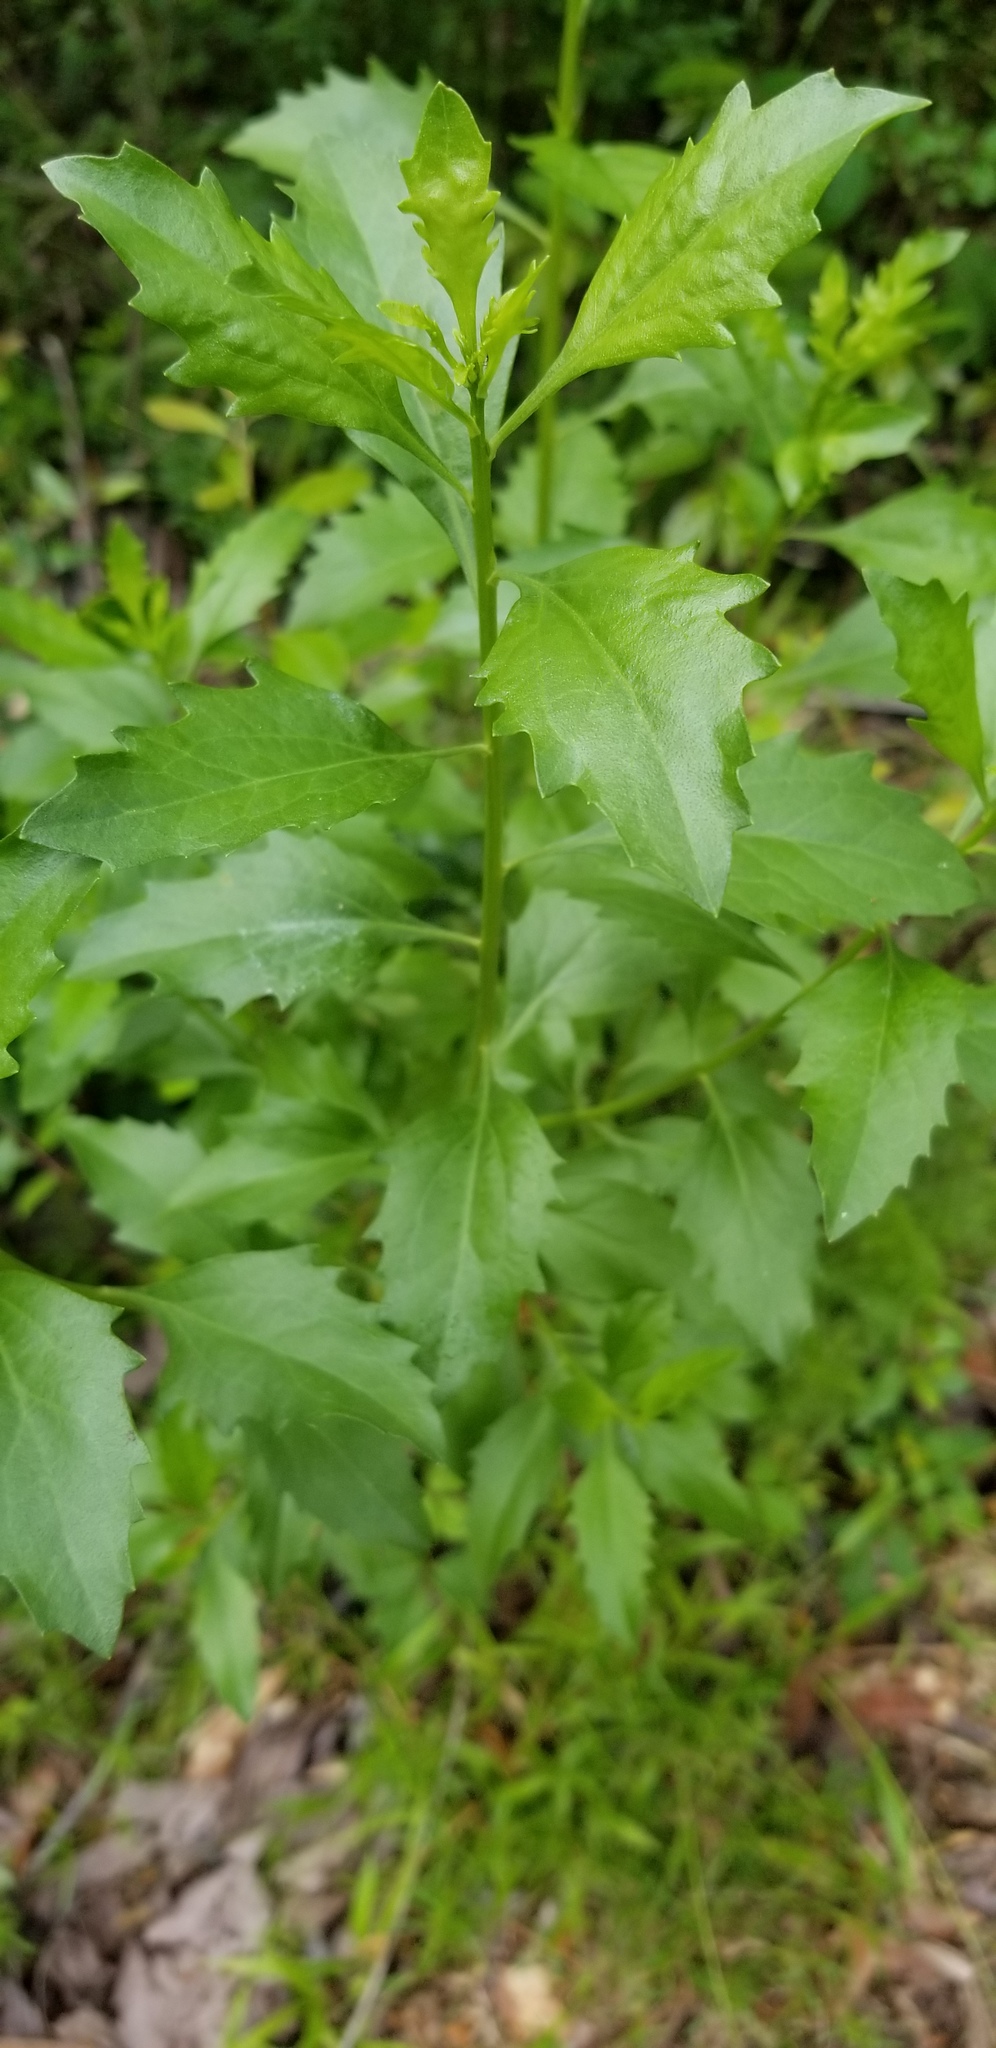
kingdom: Plantae
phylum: Tracheophyta
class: Magnoliopsida
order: Asterales
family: Asteraceae
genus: Baccharis
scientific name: Baccharis halimifolia
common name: Eastern baccharis
